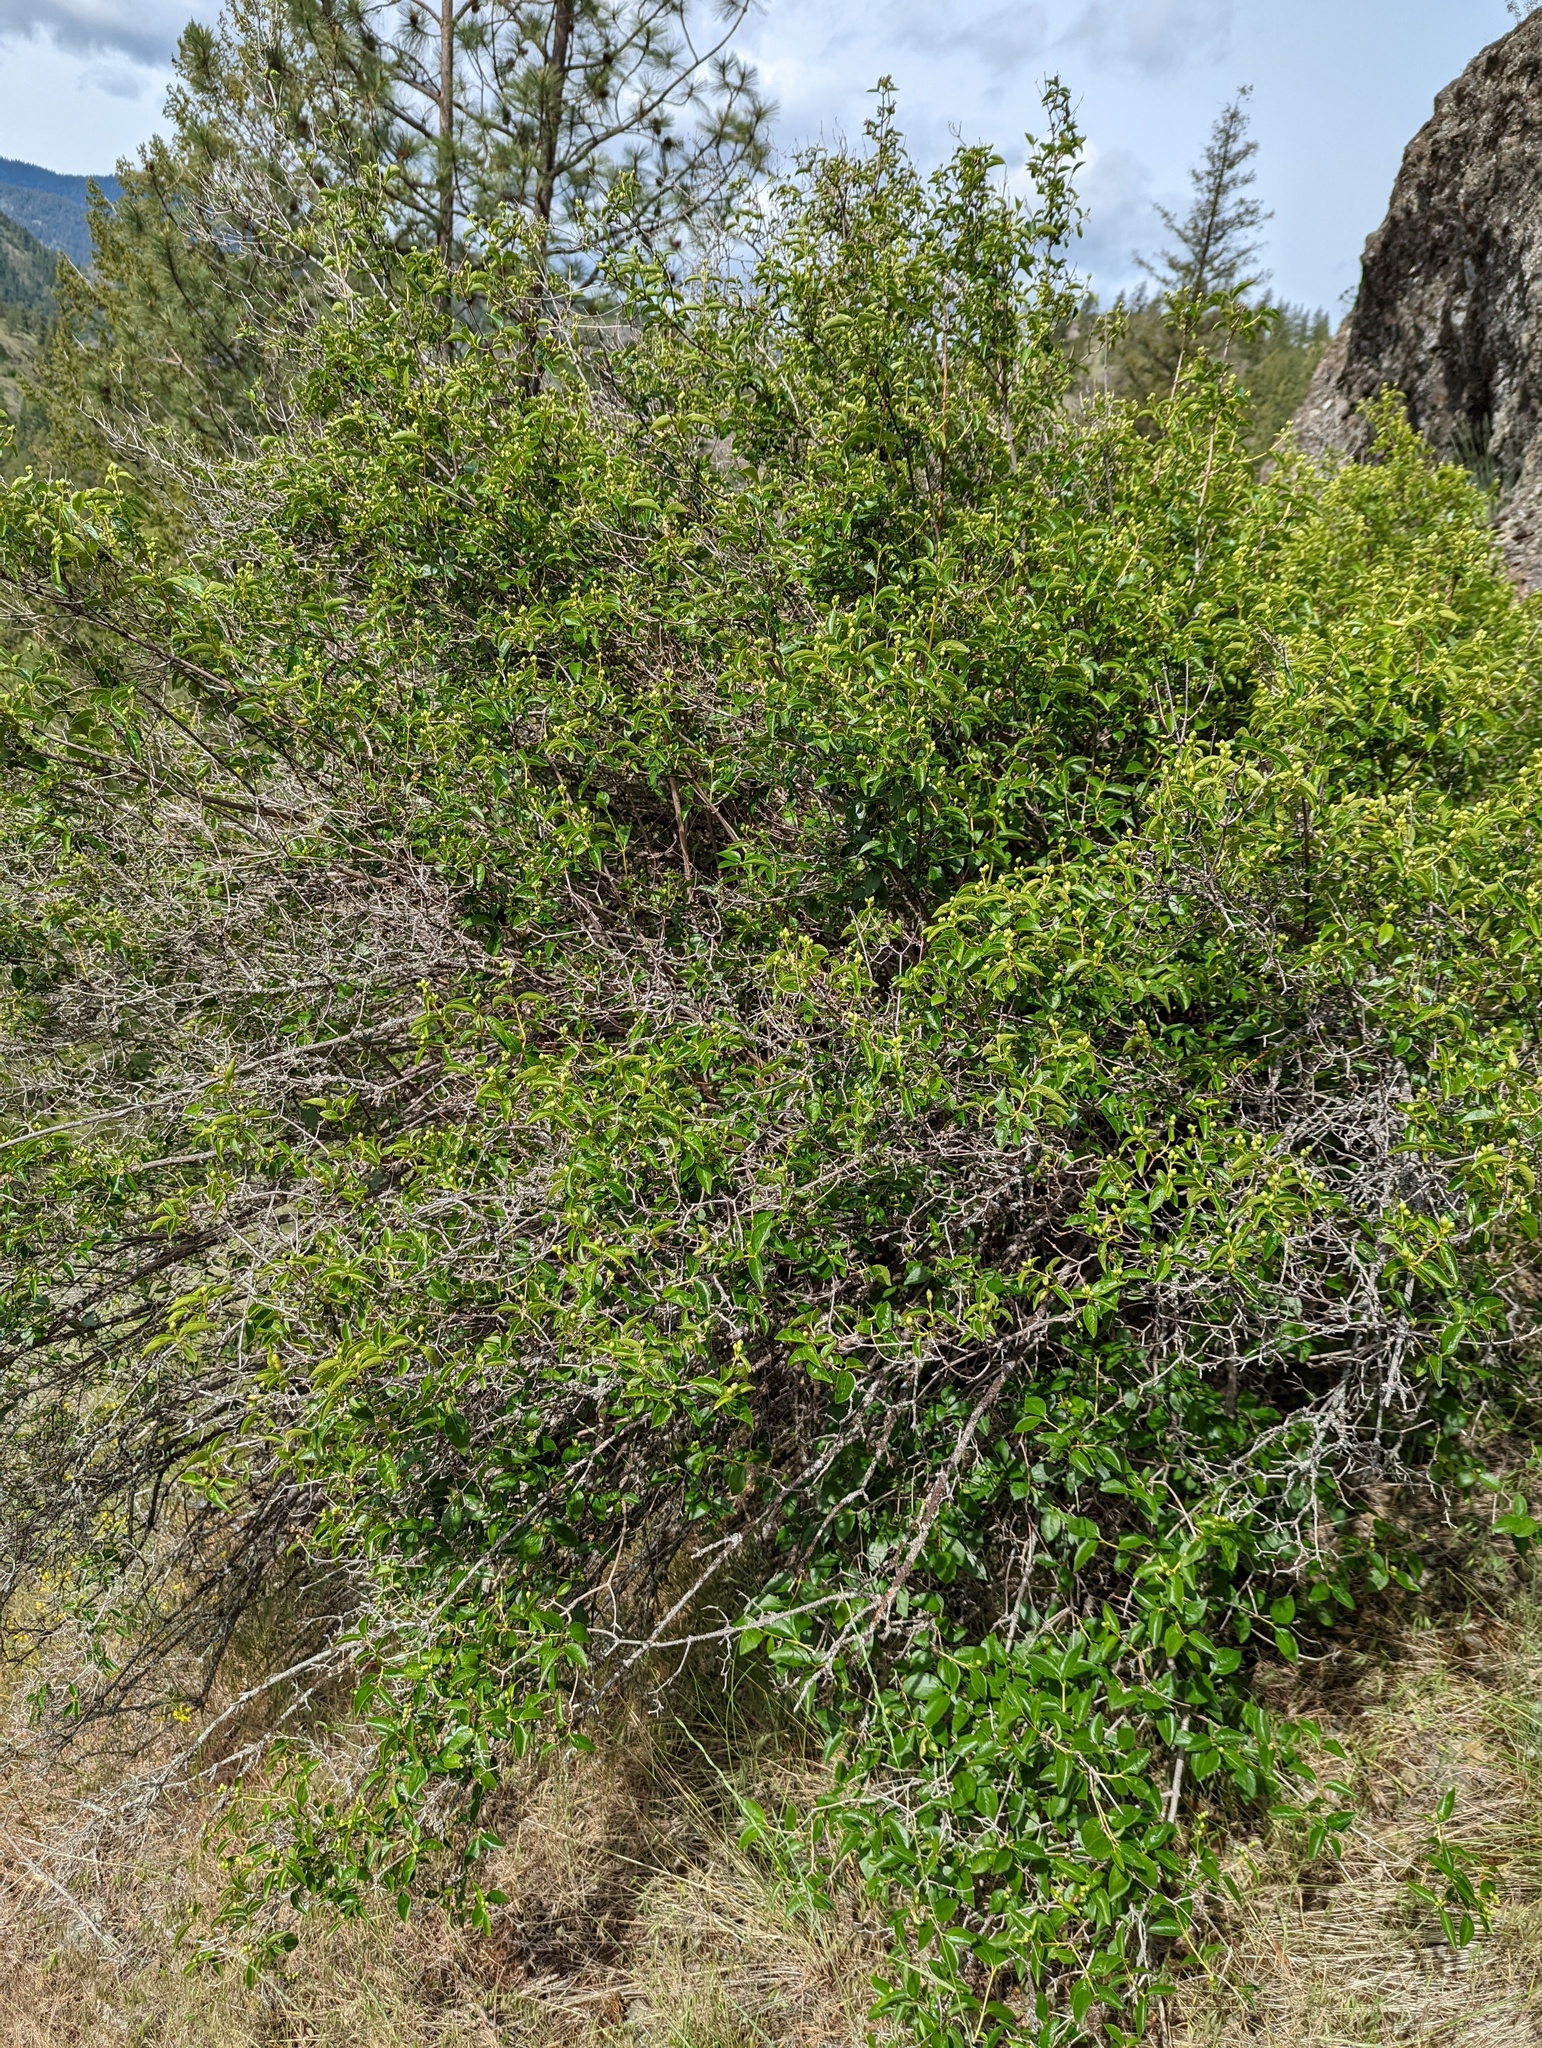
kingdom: Plantae
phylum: Tracheophyta
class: Magnoliopsida
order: Cornales
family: Hydrangeaceae
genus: Philadelphus
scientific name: Philadelphus lewisii
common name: Lewis's mock orange
